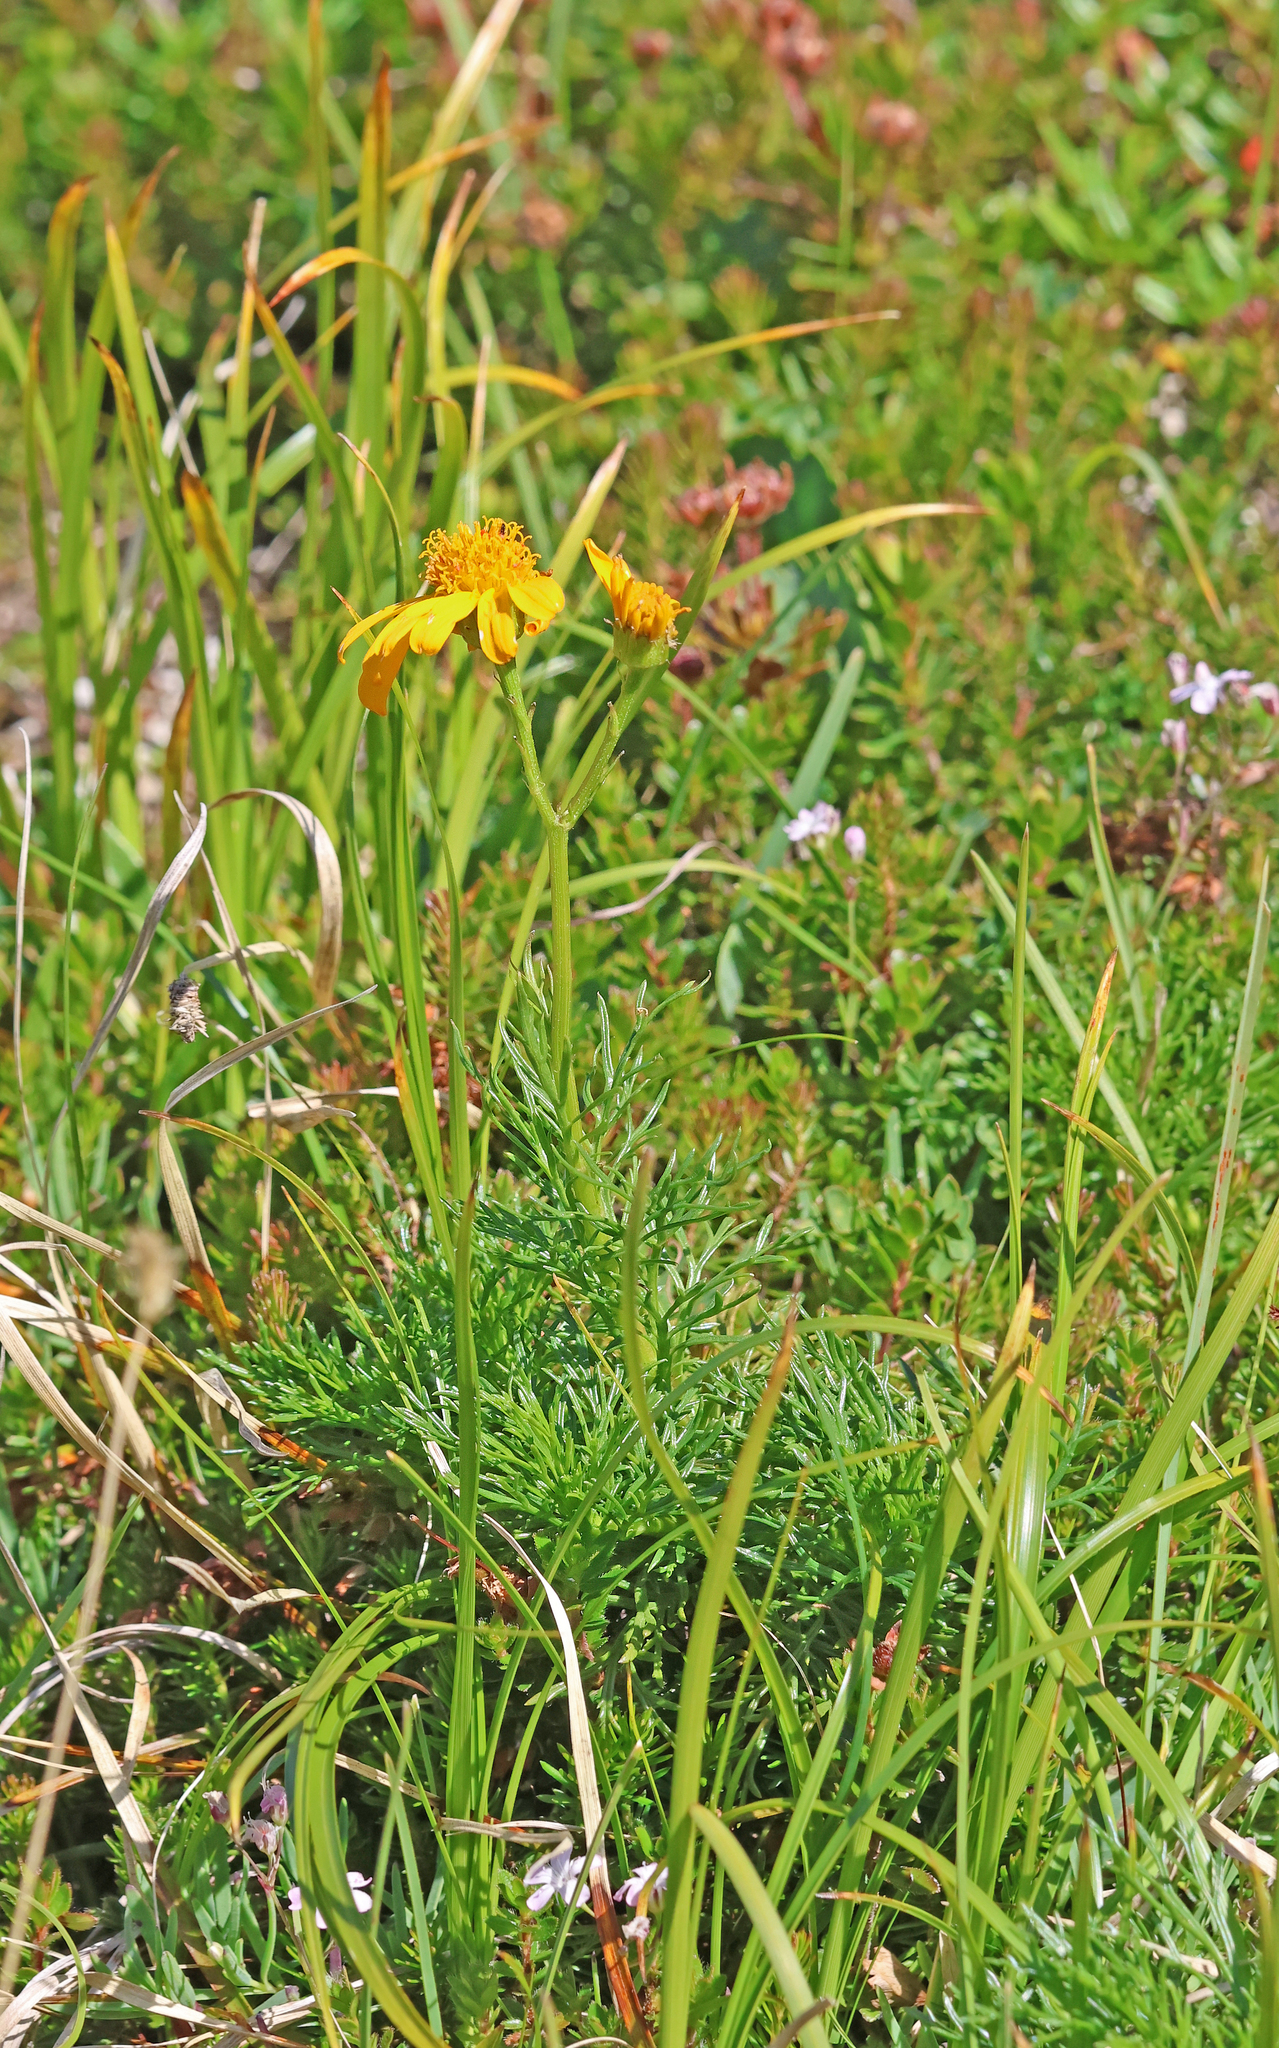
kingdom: Plantae
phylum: Tracheophyta
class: Magnoliopsida
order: Asterales
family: Asteraceae
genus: Jacobaea
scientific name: Jacobaea abrotanifolia
